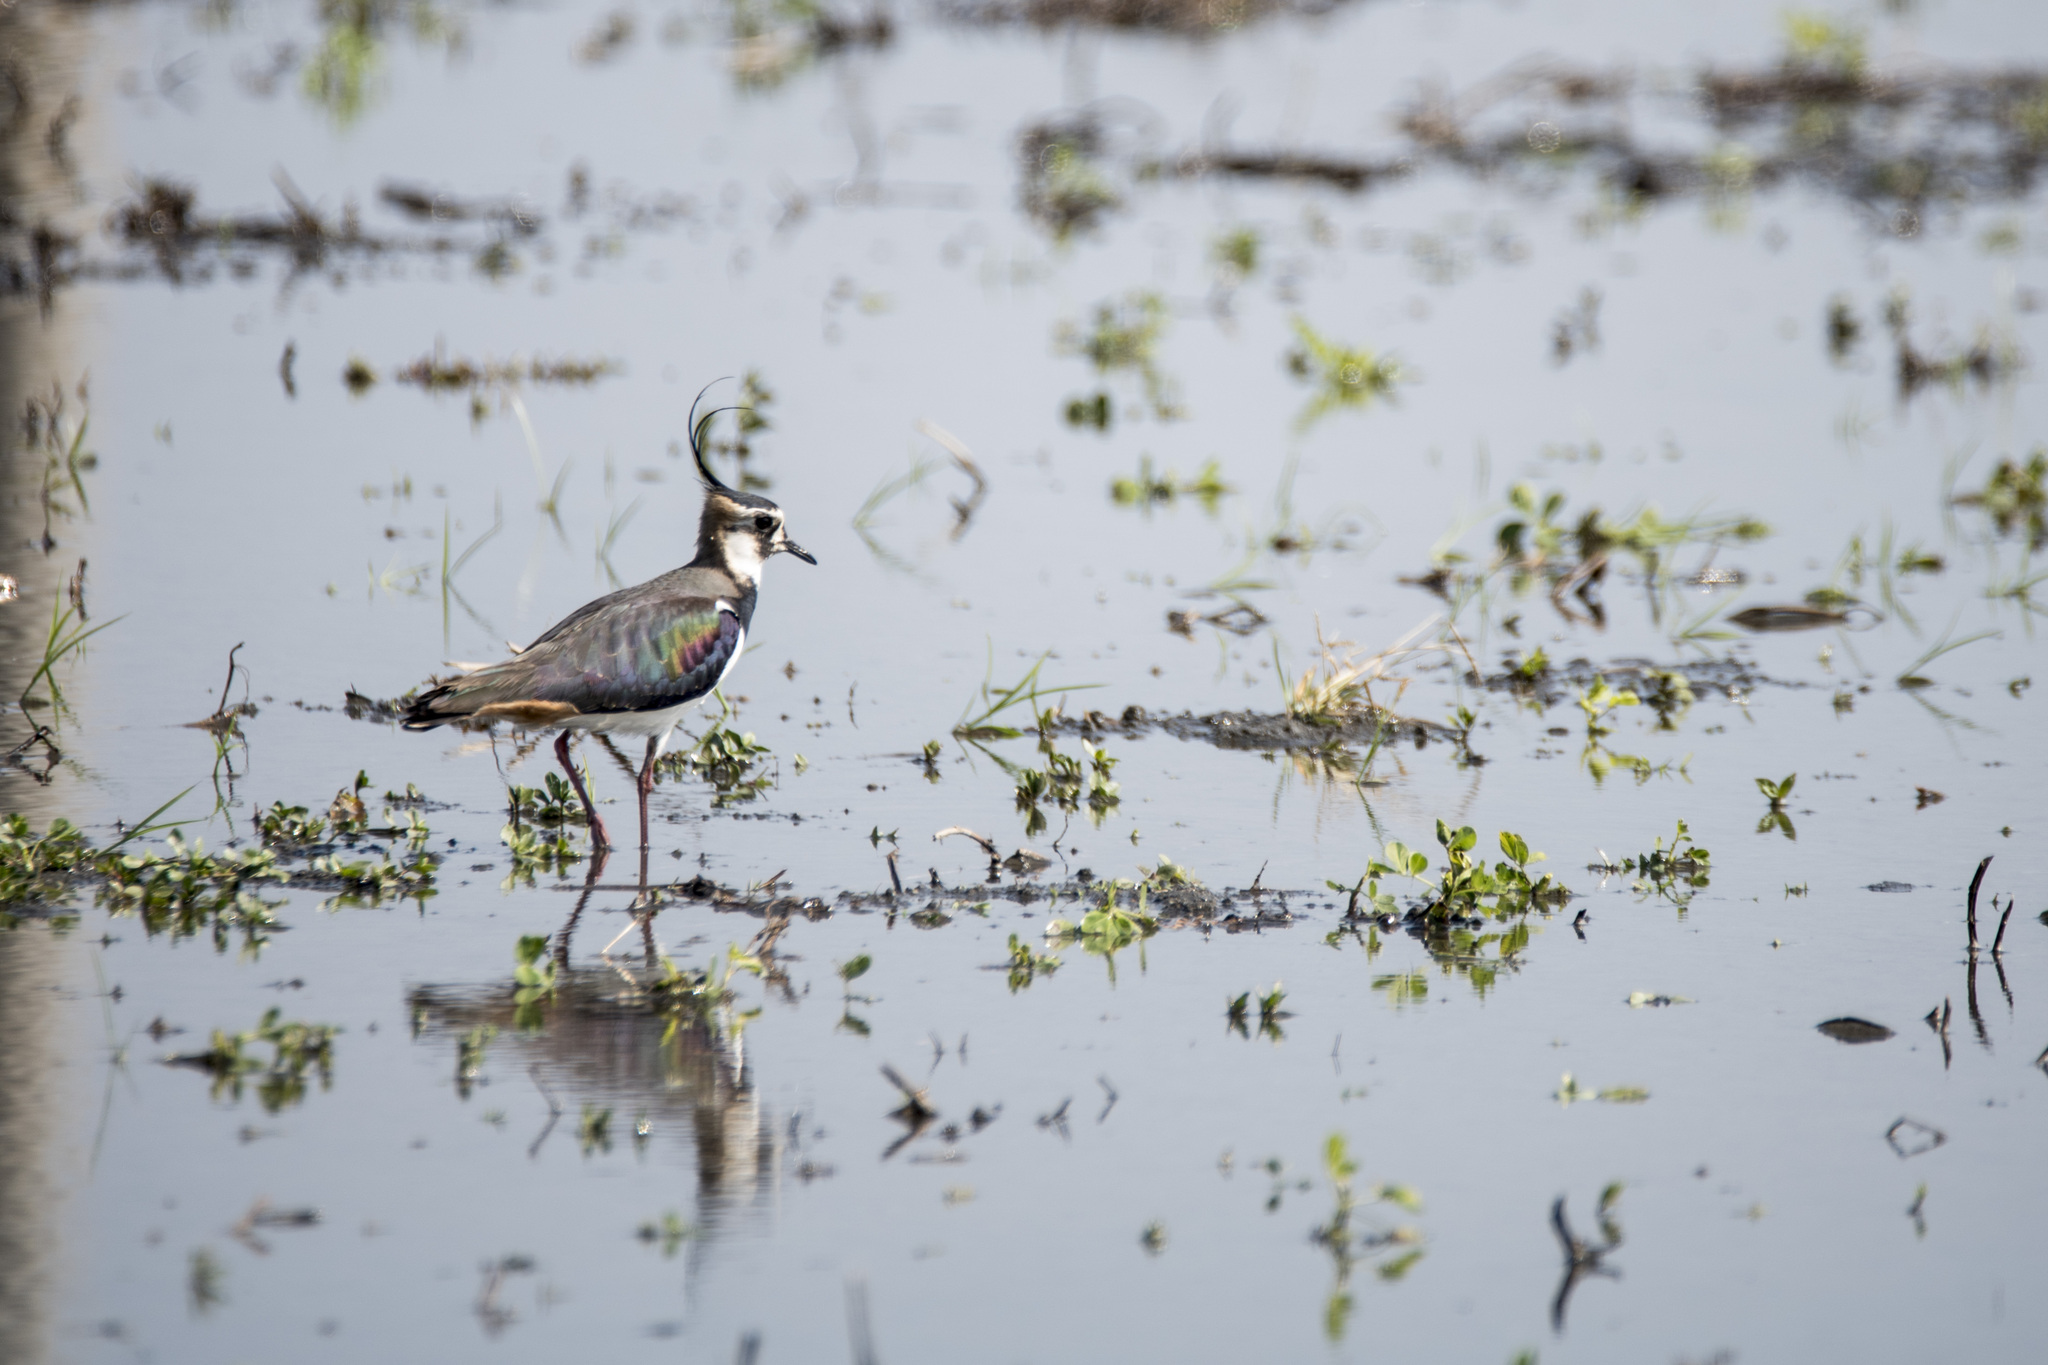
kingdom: Animalia
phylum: Chordata
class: Aves
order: Charadriiformes
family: Charadriidae
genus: Vanellus
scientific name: Vanellus vanellus
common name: Northern lapwing
